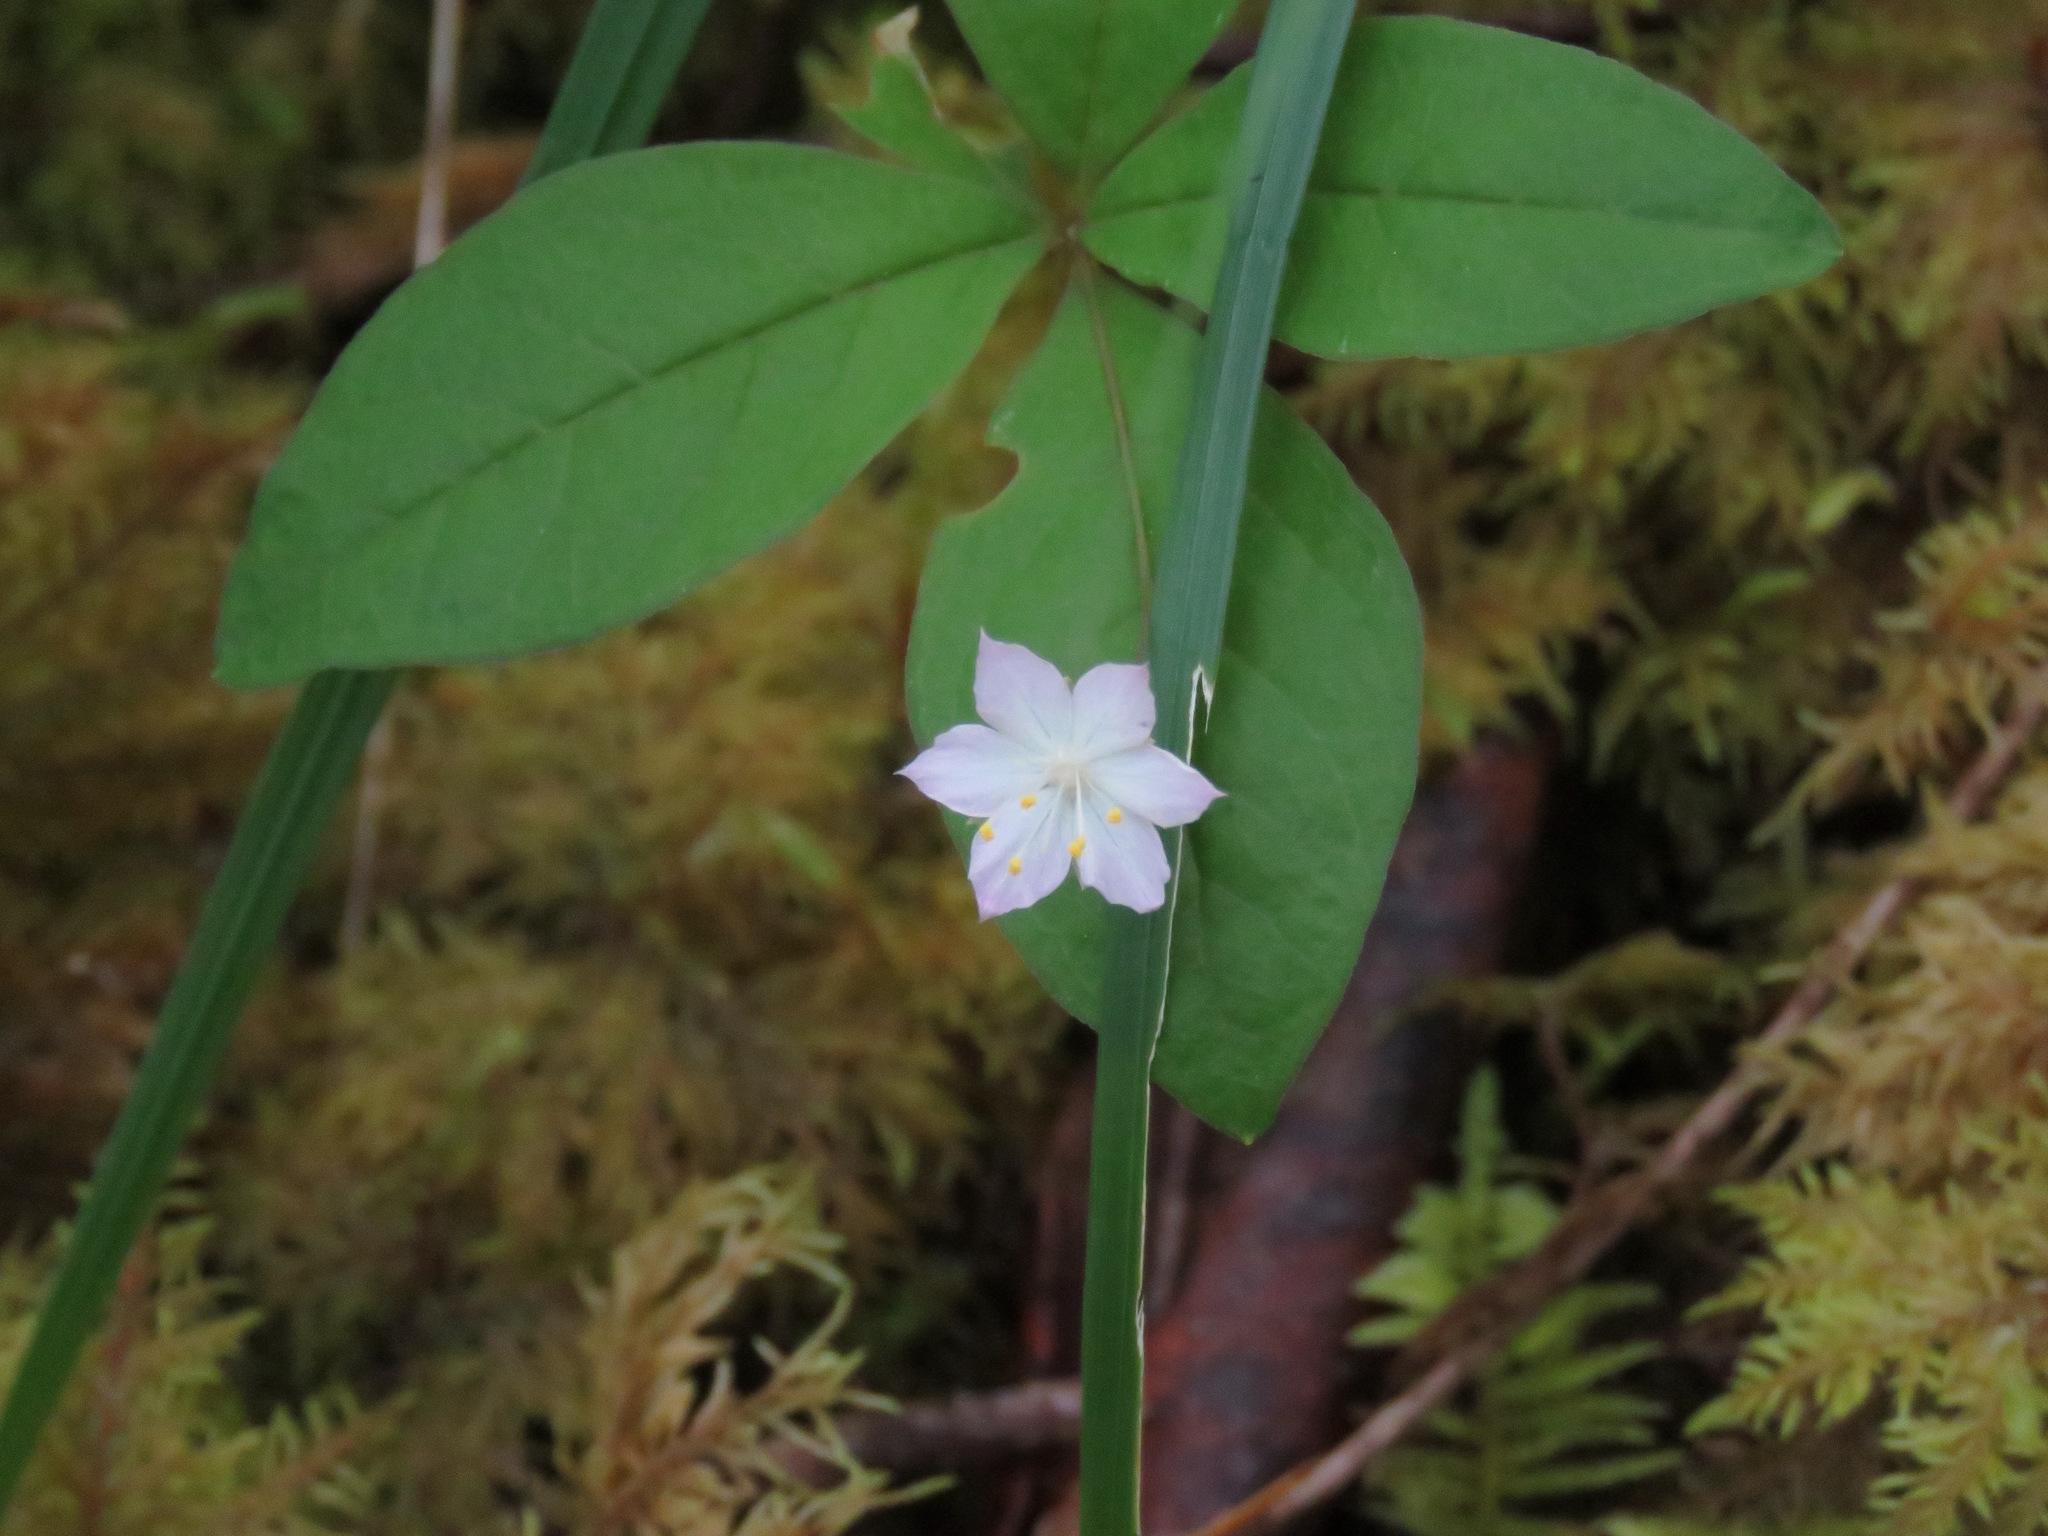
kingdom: Plantae
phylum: Tracheophyta
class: Magnoliopsida
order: Ericales
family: Primulaceae
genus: Lysimachia
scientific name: Lysimachia latifolia
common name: Pacific starflower
